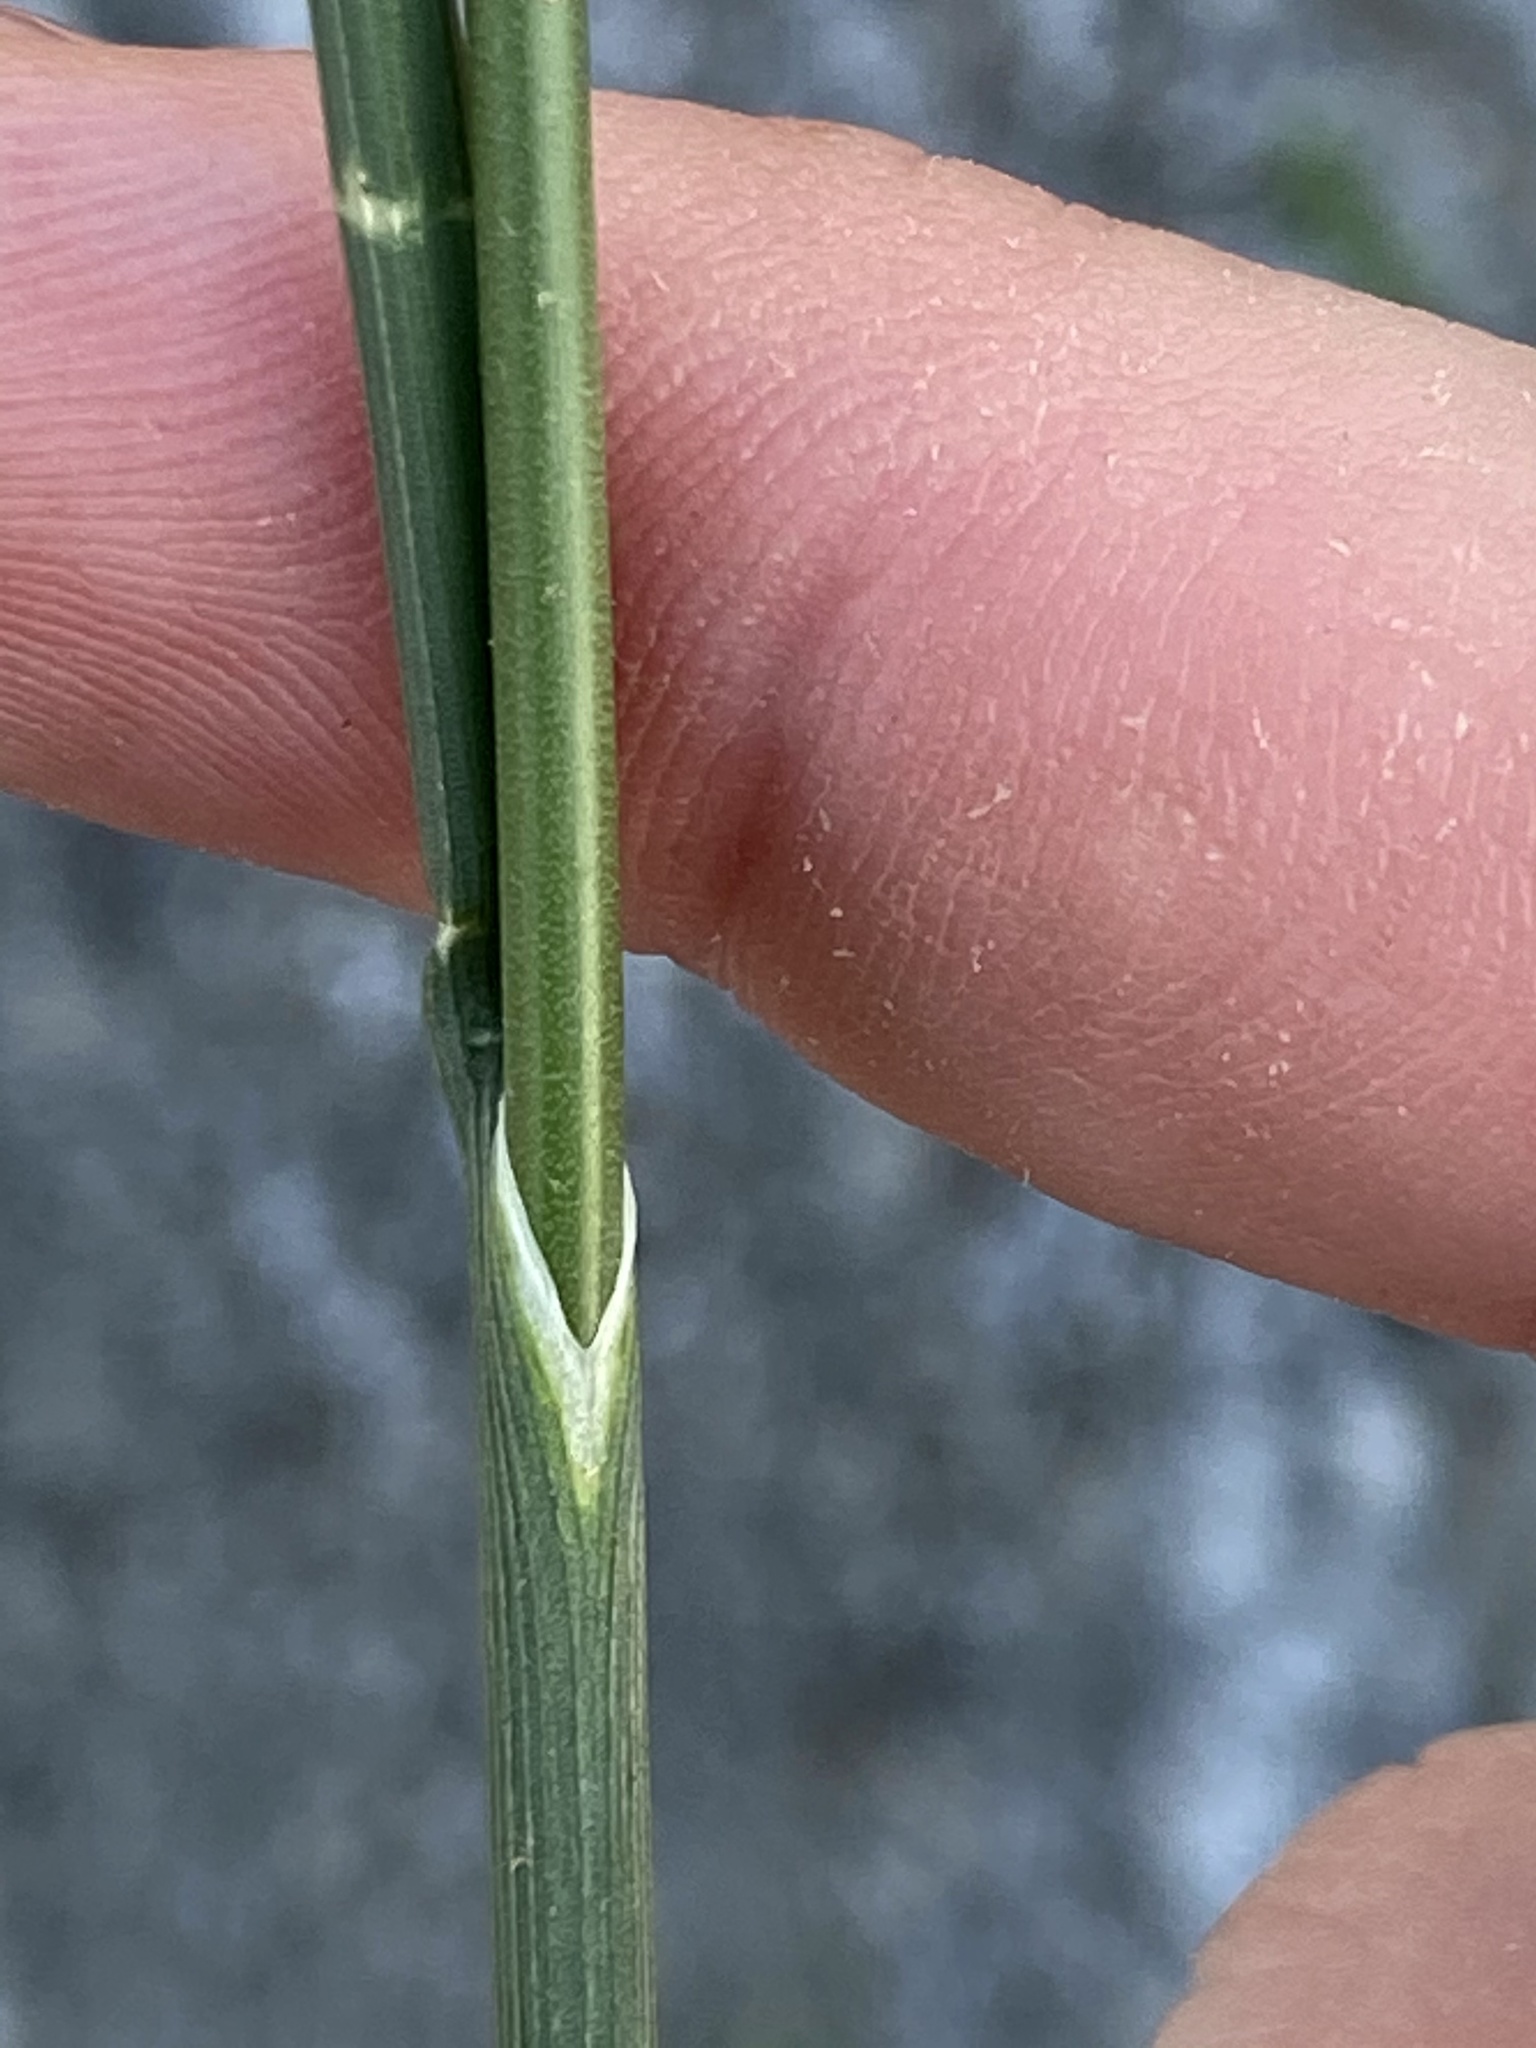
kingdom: Plantae
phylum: Tracheophyta
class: Liliopsida
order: Asparagales
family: Amaryllidaceae
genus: Allium
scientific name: Allium vineale
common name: Crow garlic
